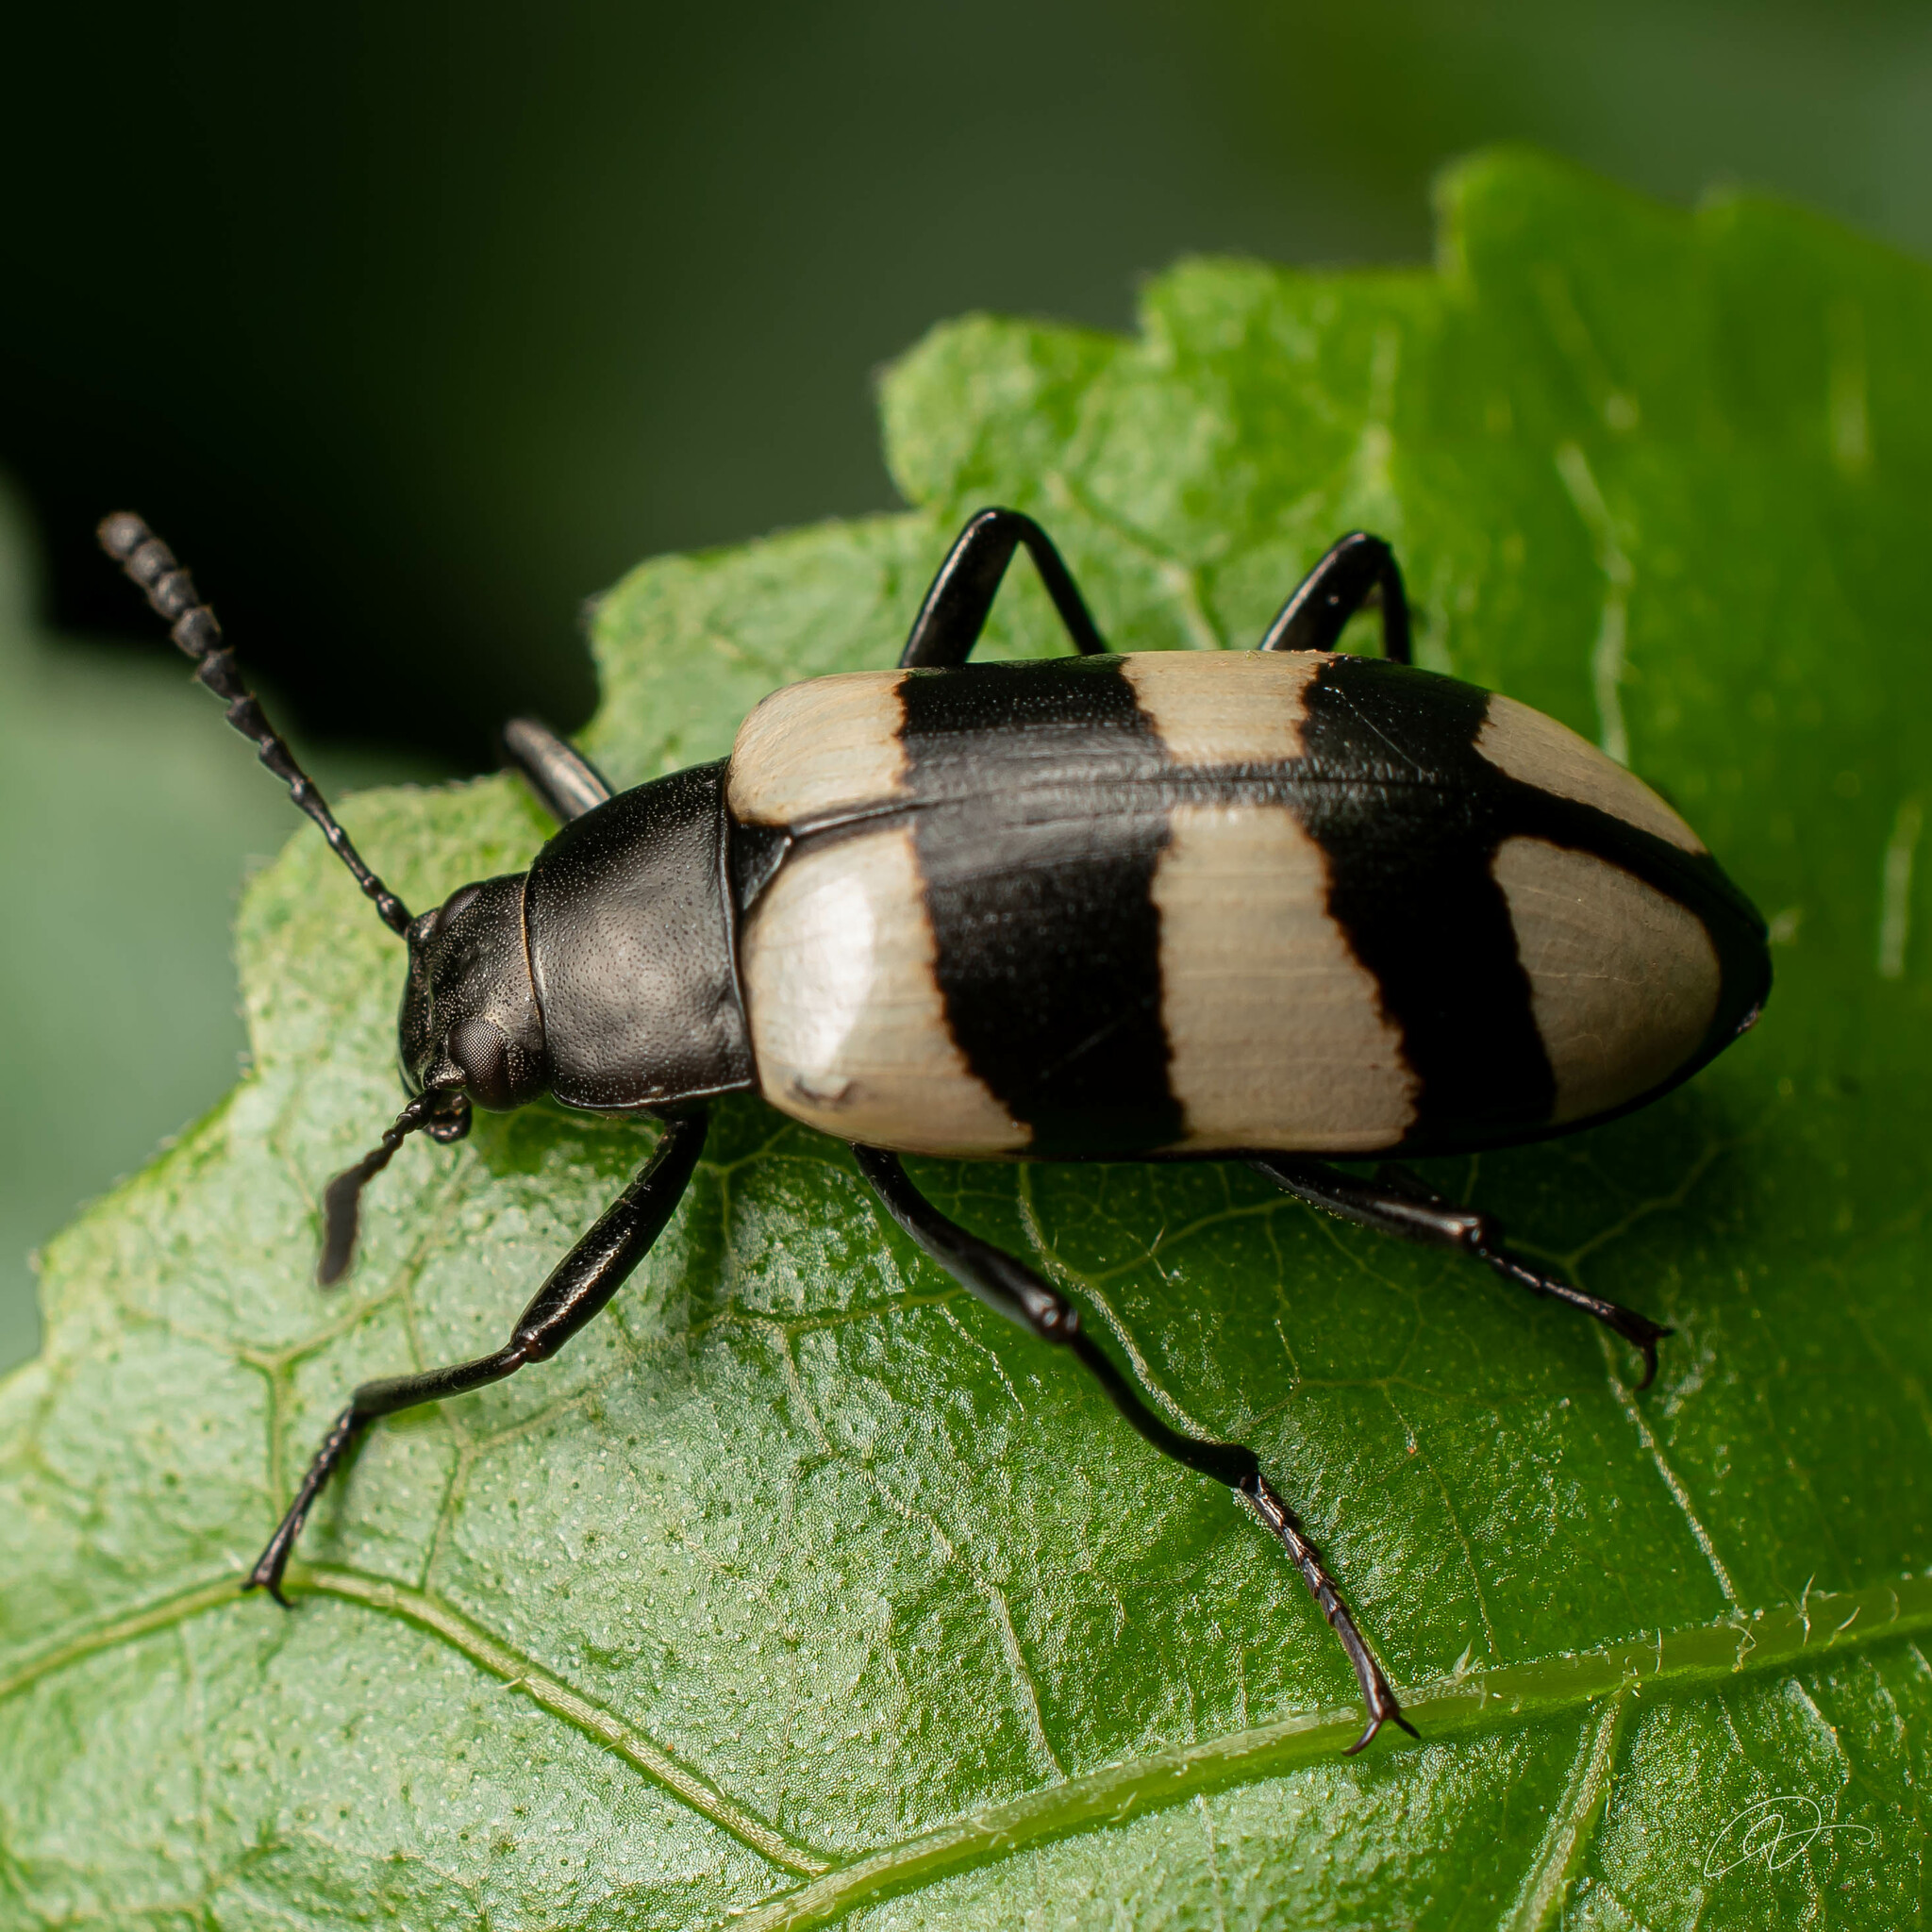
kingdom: Animalia
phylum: Arthropoda
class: Insecta
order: Coleoptera
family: Tenebrionidae
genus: Poecilesthus
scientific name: Poecilesthus
